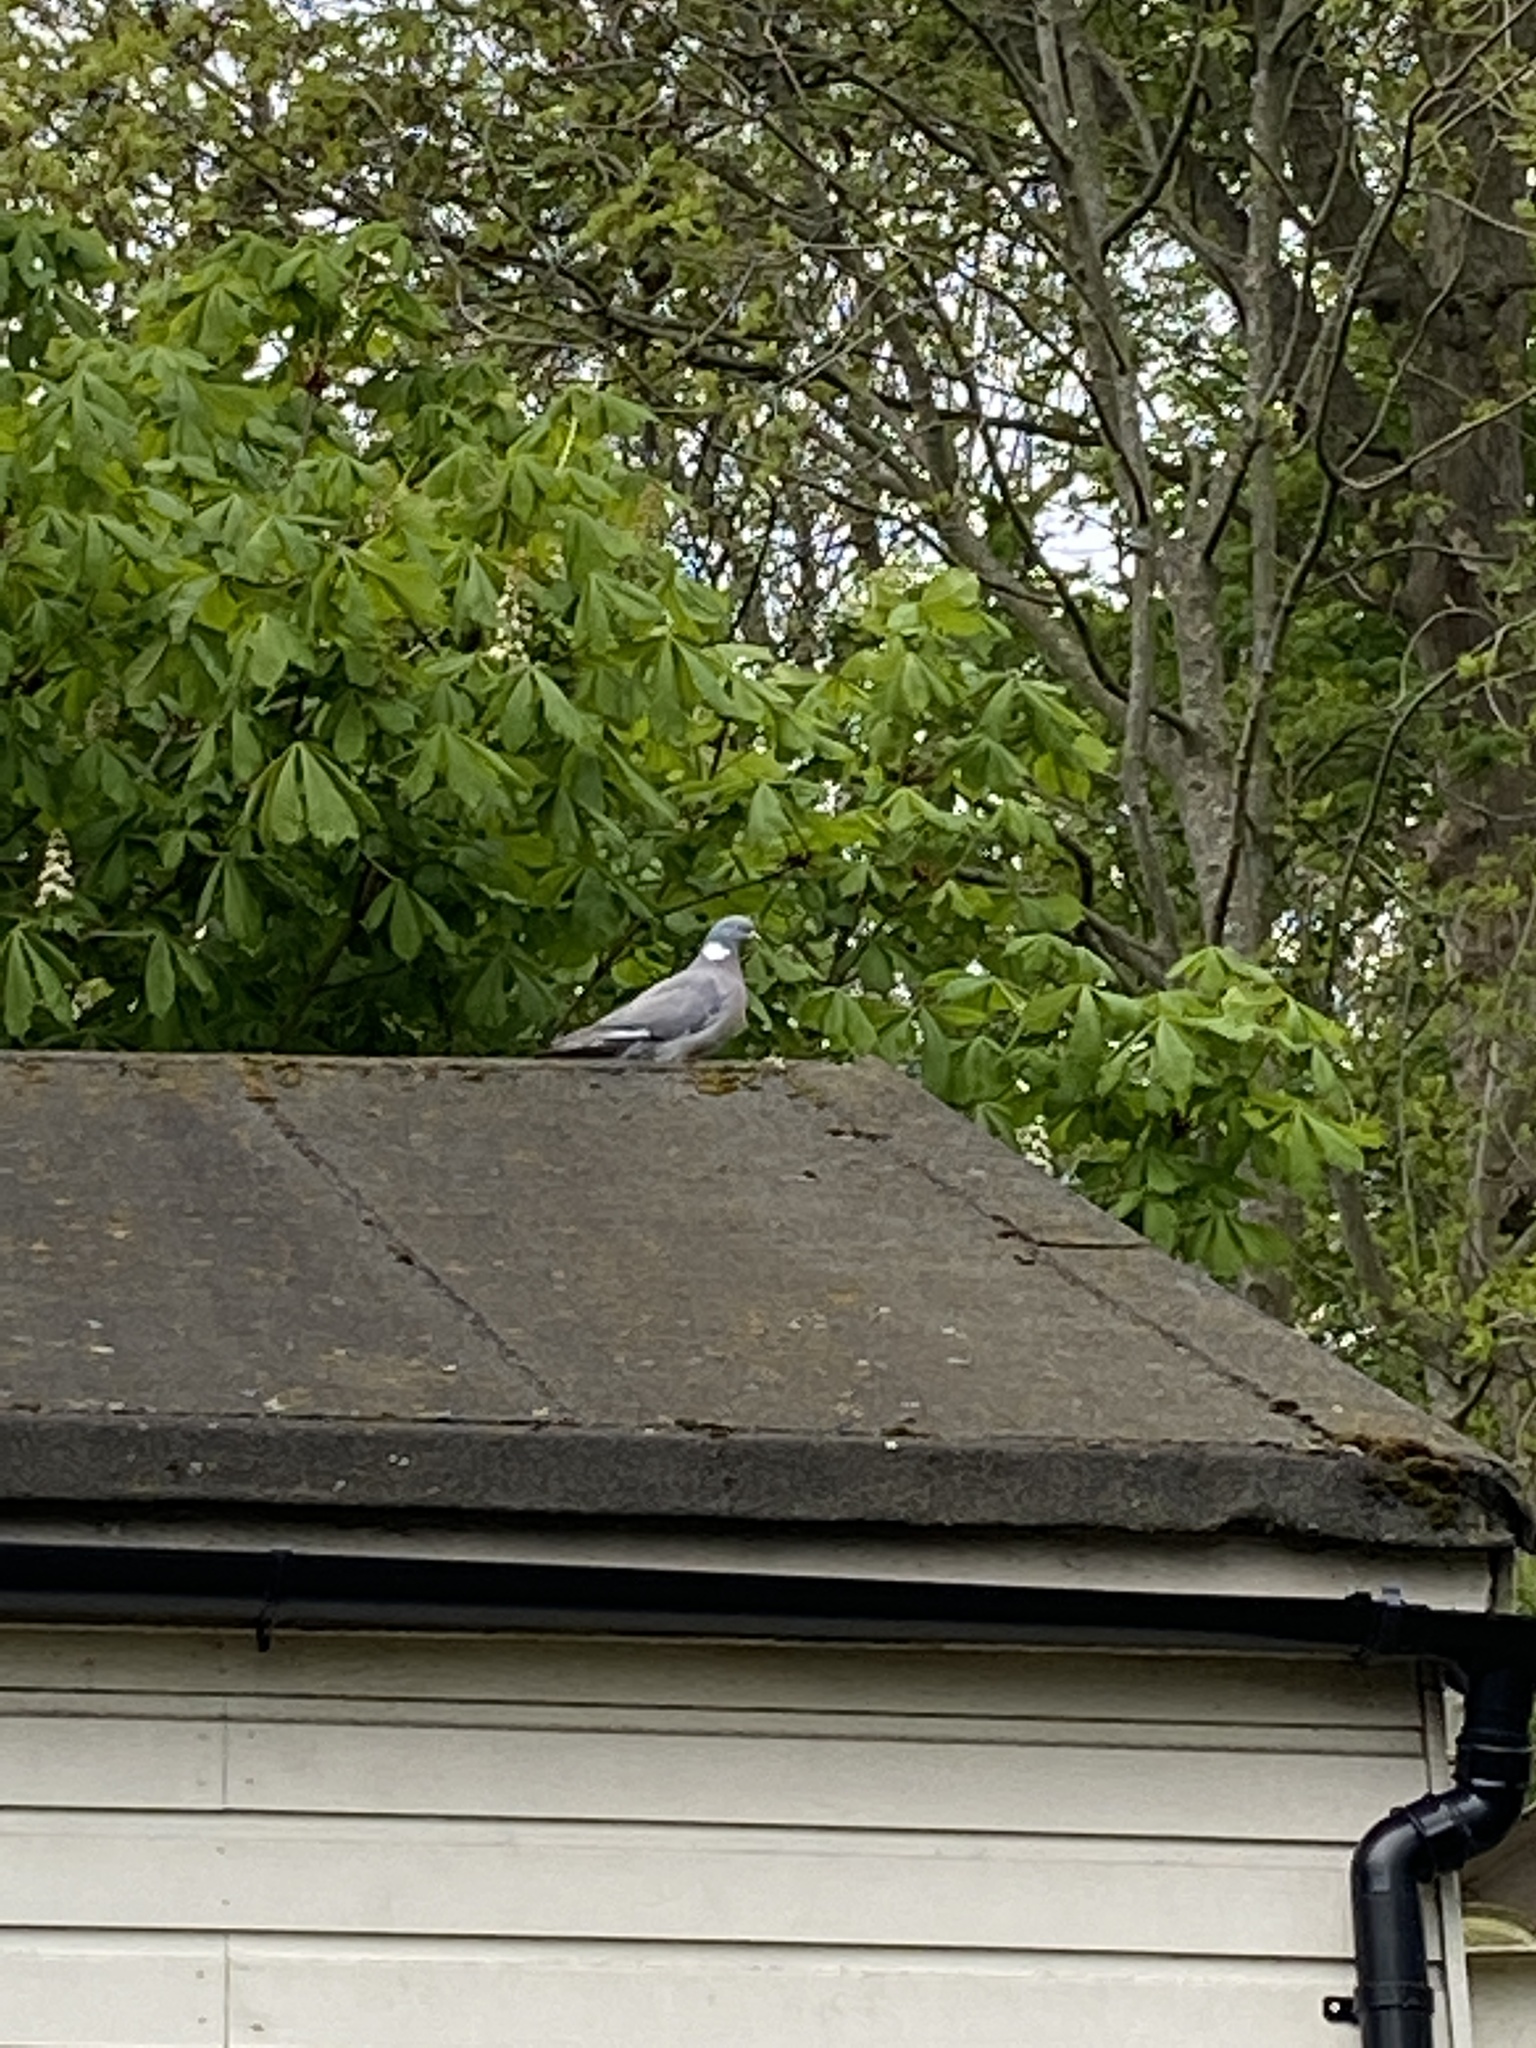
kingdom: Animalia
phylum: Chordata
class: Aves
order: Columbiformes
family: Columbidae
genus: Columba
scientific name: Columba palumbus
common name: Common wood pigeon
